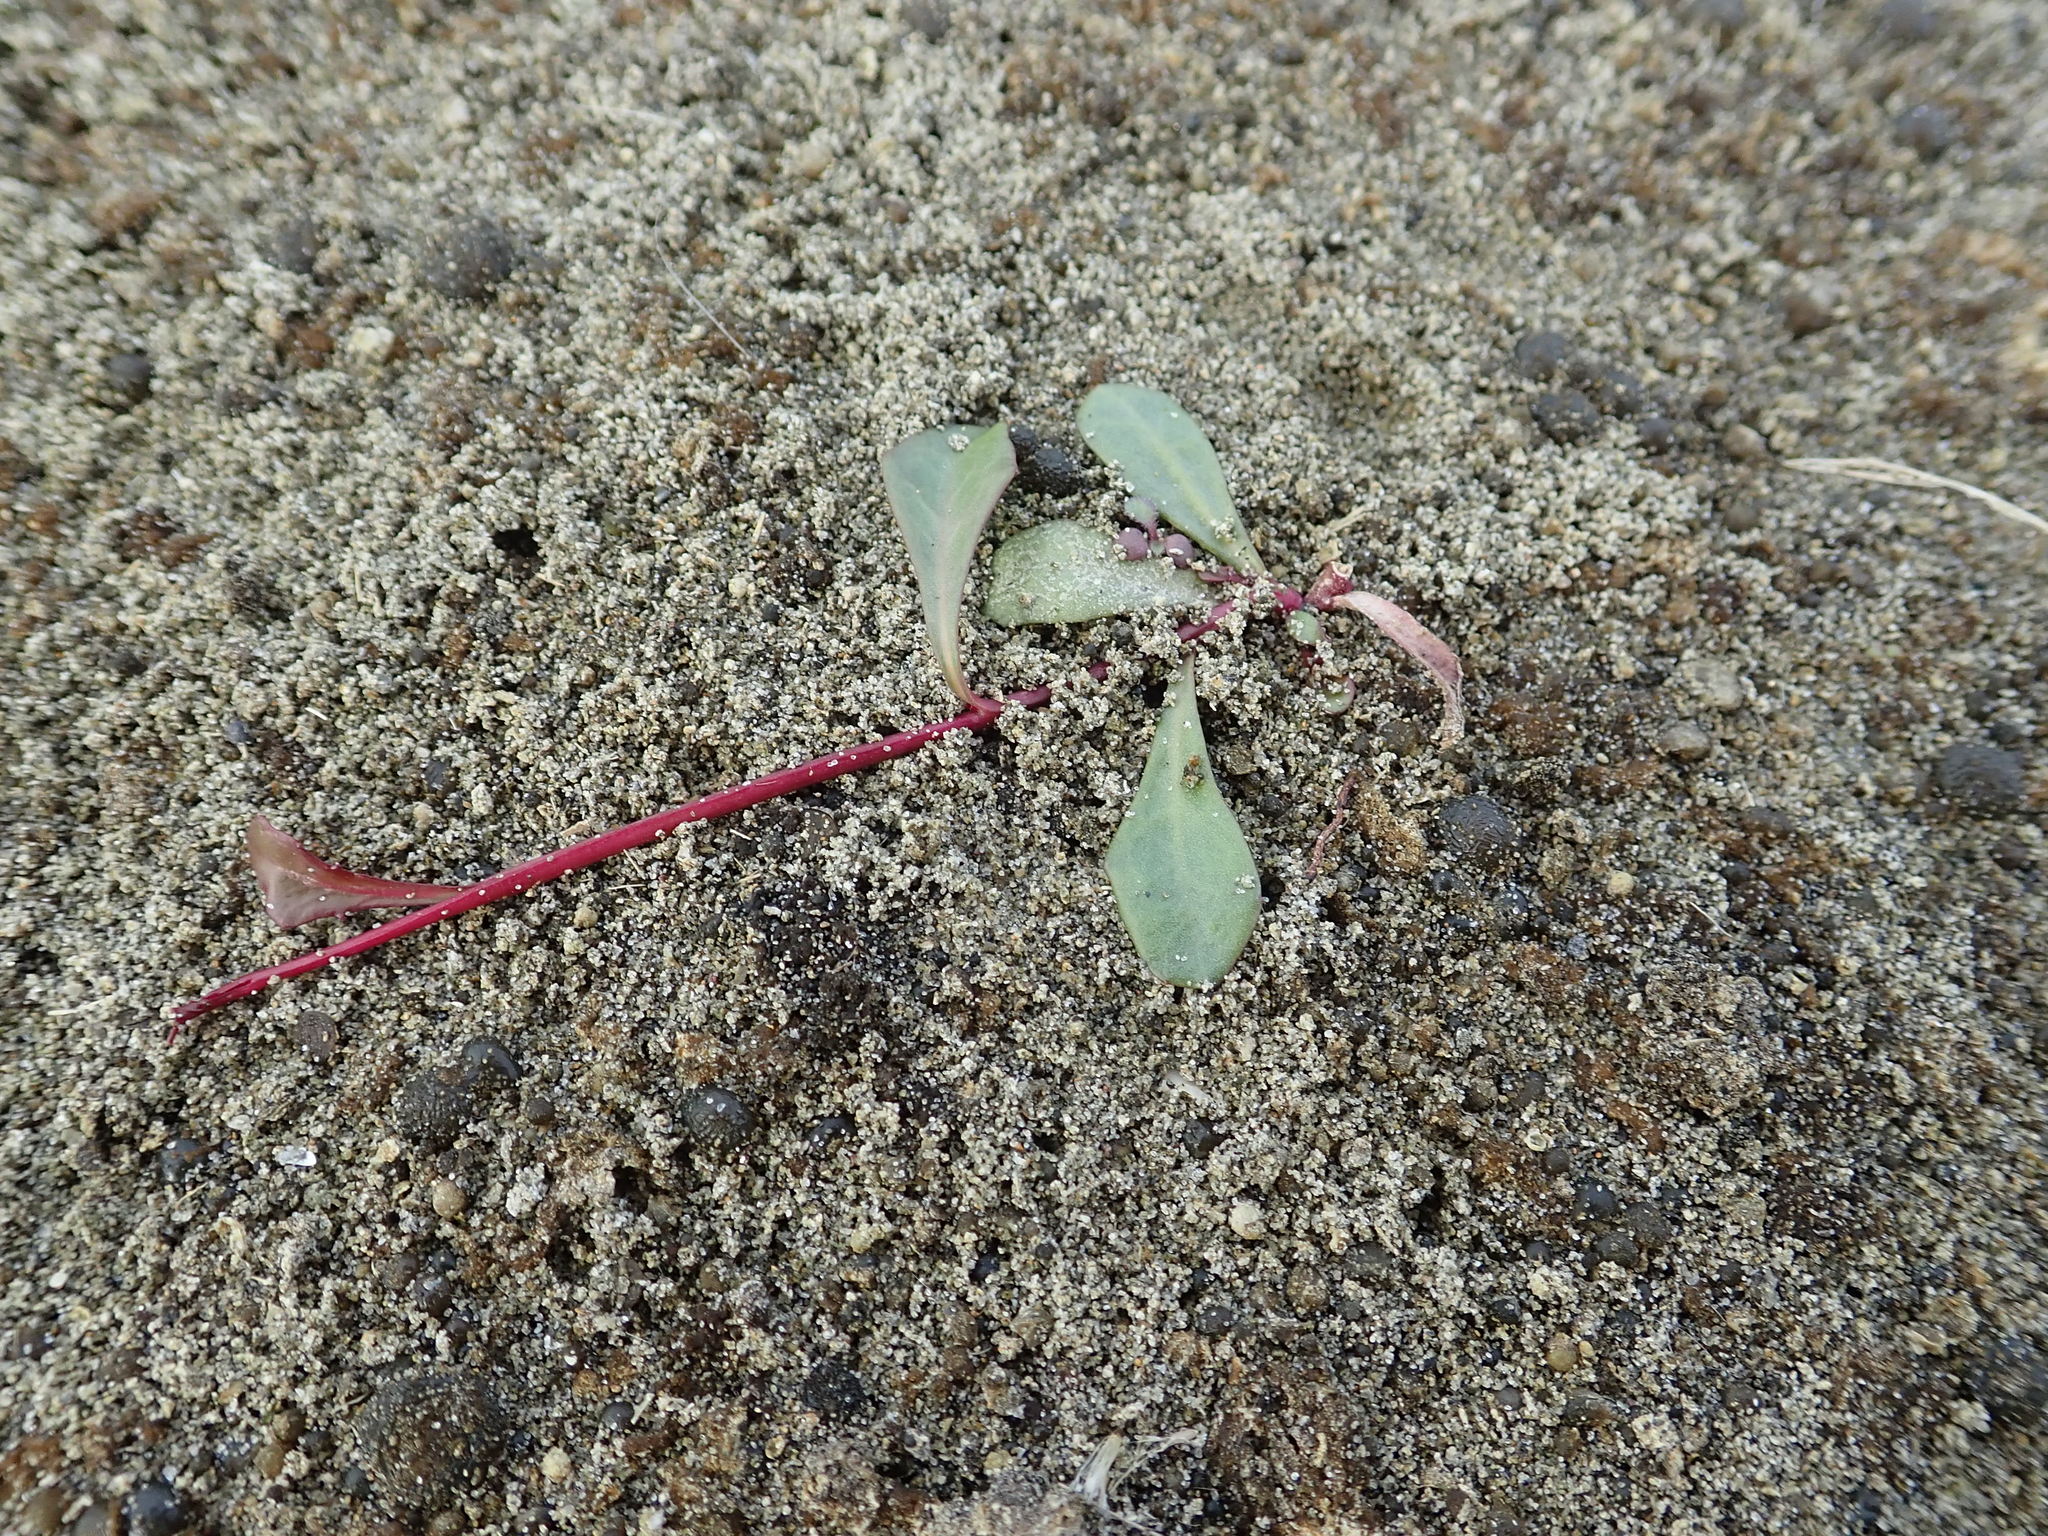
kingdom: Plantae
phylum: Tracheophyta
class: Magnoliopsida
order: Asterales
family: Campanulaceae
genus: Lobelia
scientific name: Lobelia anceps
